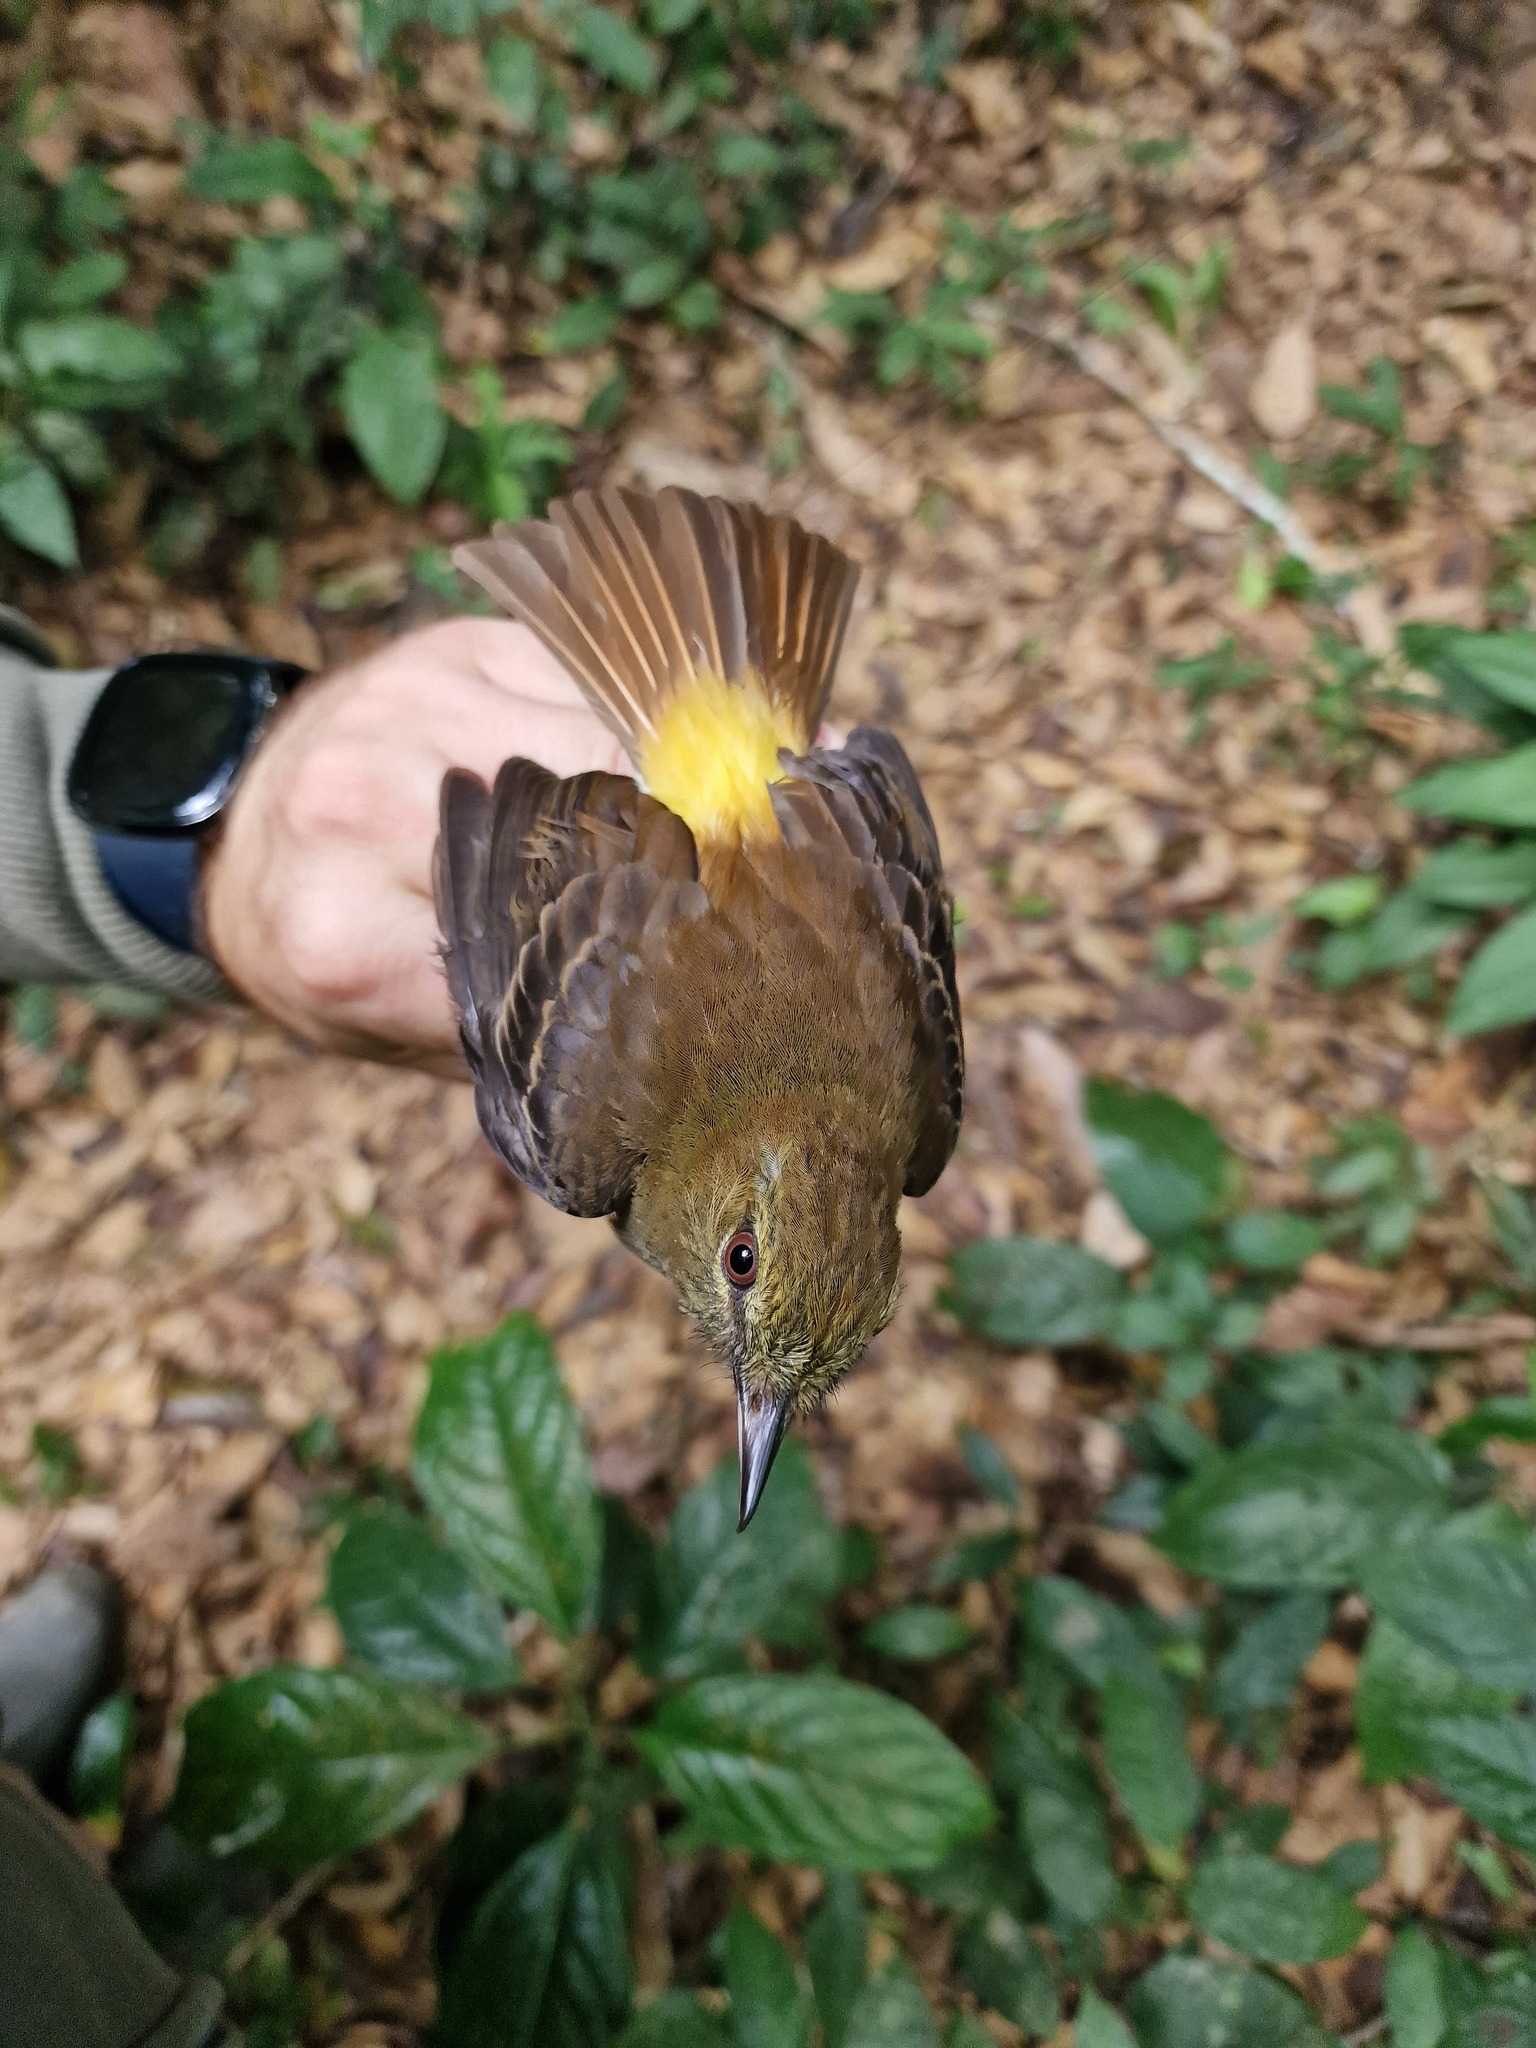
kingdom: Animalia
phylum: Chordata
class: Aves
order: Passeriformes
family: Tyrannidae
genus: Attila
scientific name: Attila spadiceus
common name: Bright-rumped attila
